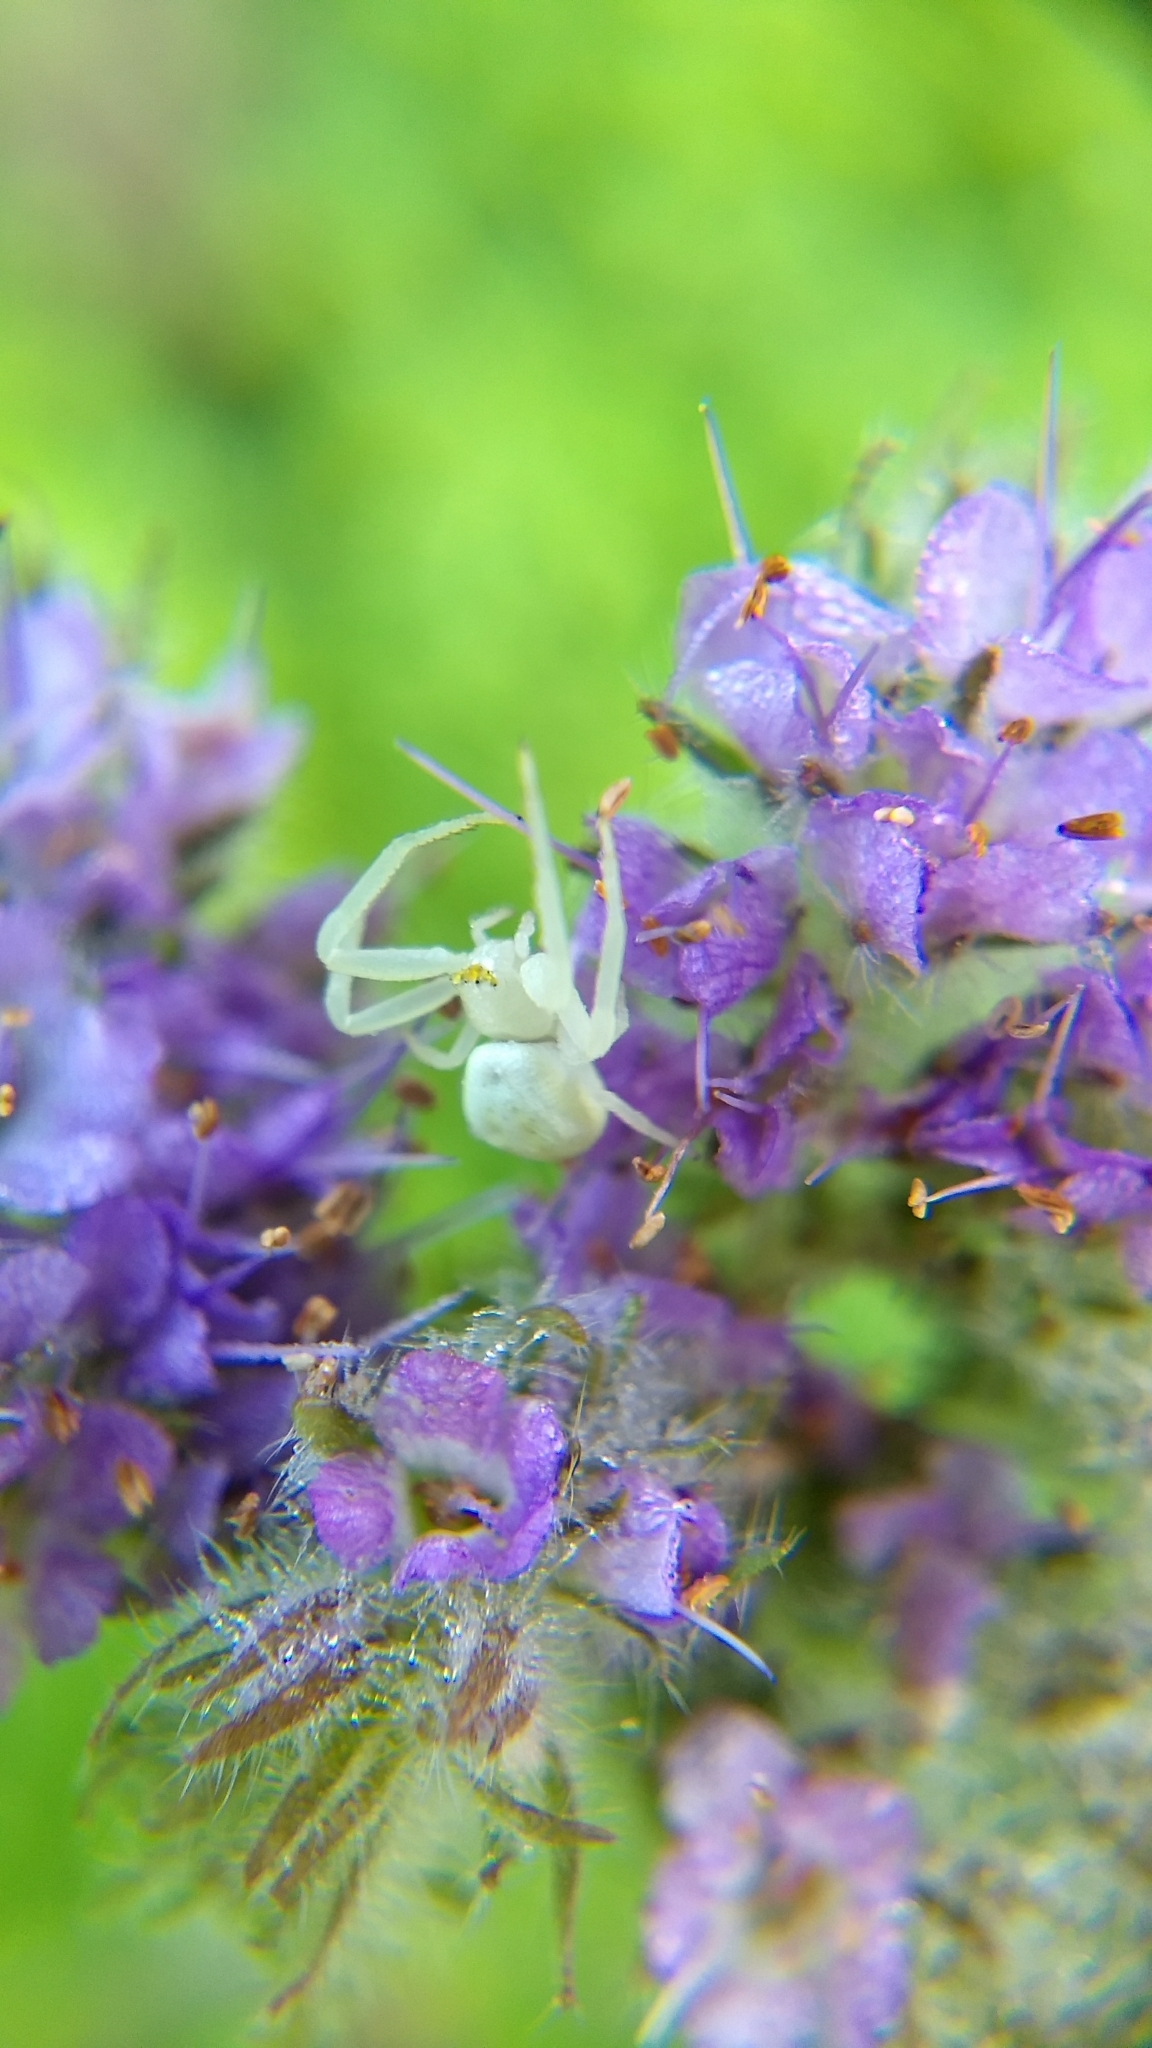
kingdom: Animalia
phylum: Arthropoda
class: Arachnida
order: Araneae
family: Thomisidae
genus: Misumena
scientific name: Misumena vatia
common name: Goldenrod crab spider
